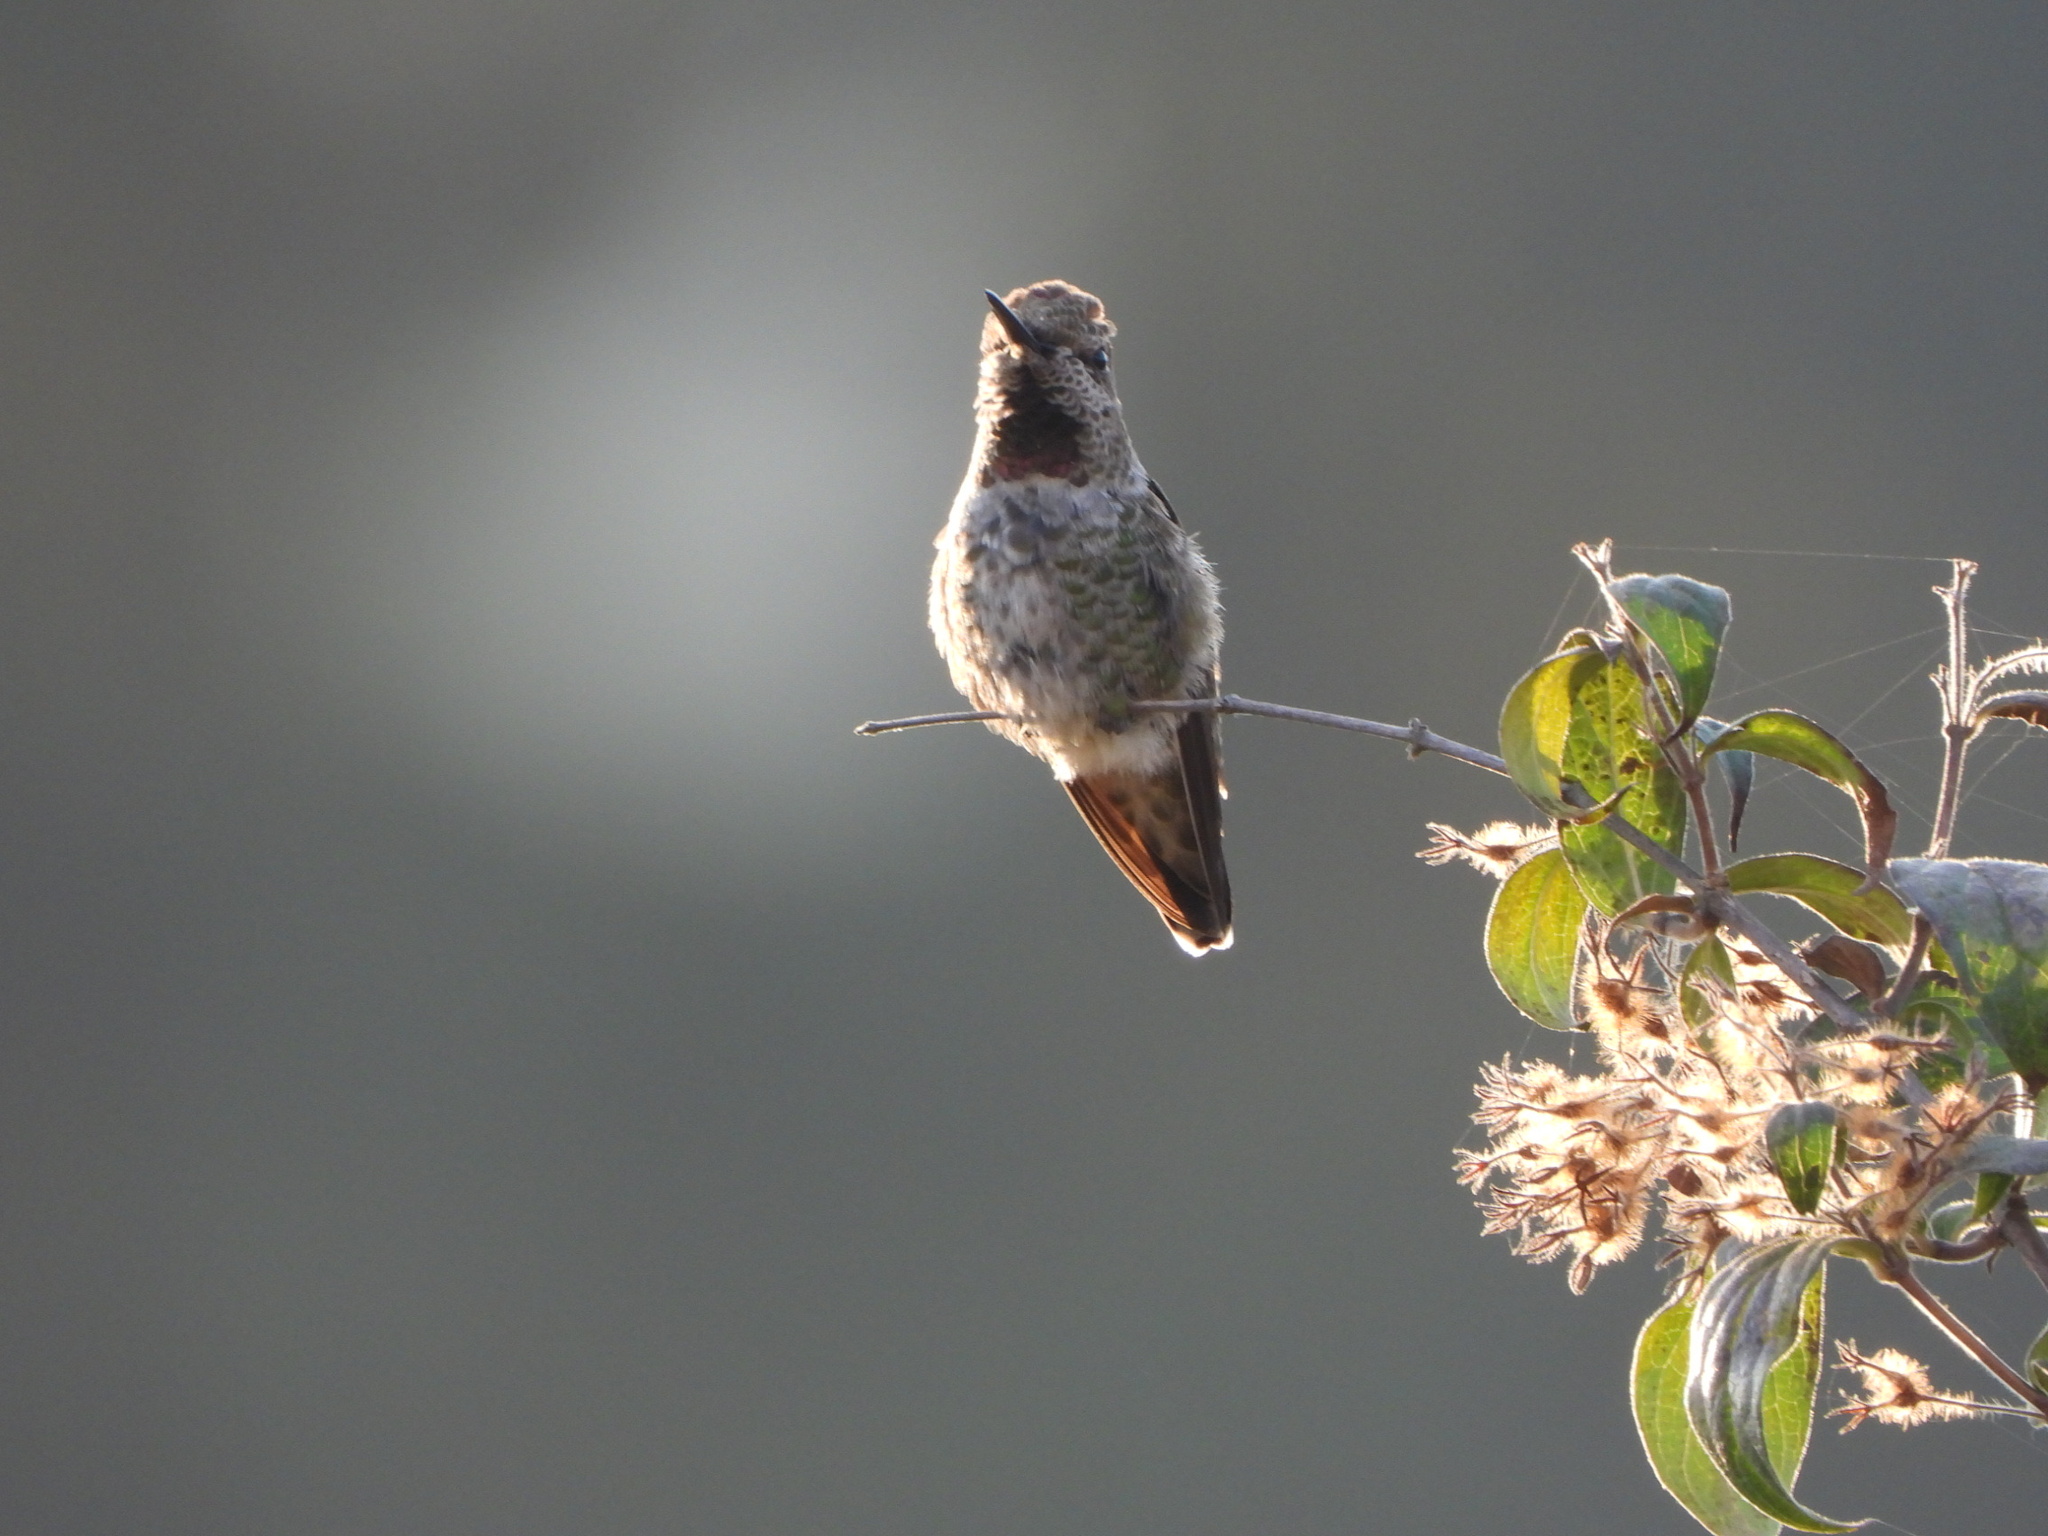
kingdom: Animalia
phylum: Chordata
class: Aves
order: Apodiformes
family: Trochilidae
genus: Calypte
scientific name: Calypte anna
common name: Anna's hummingbird
